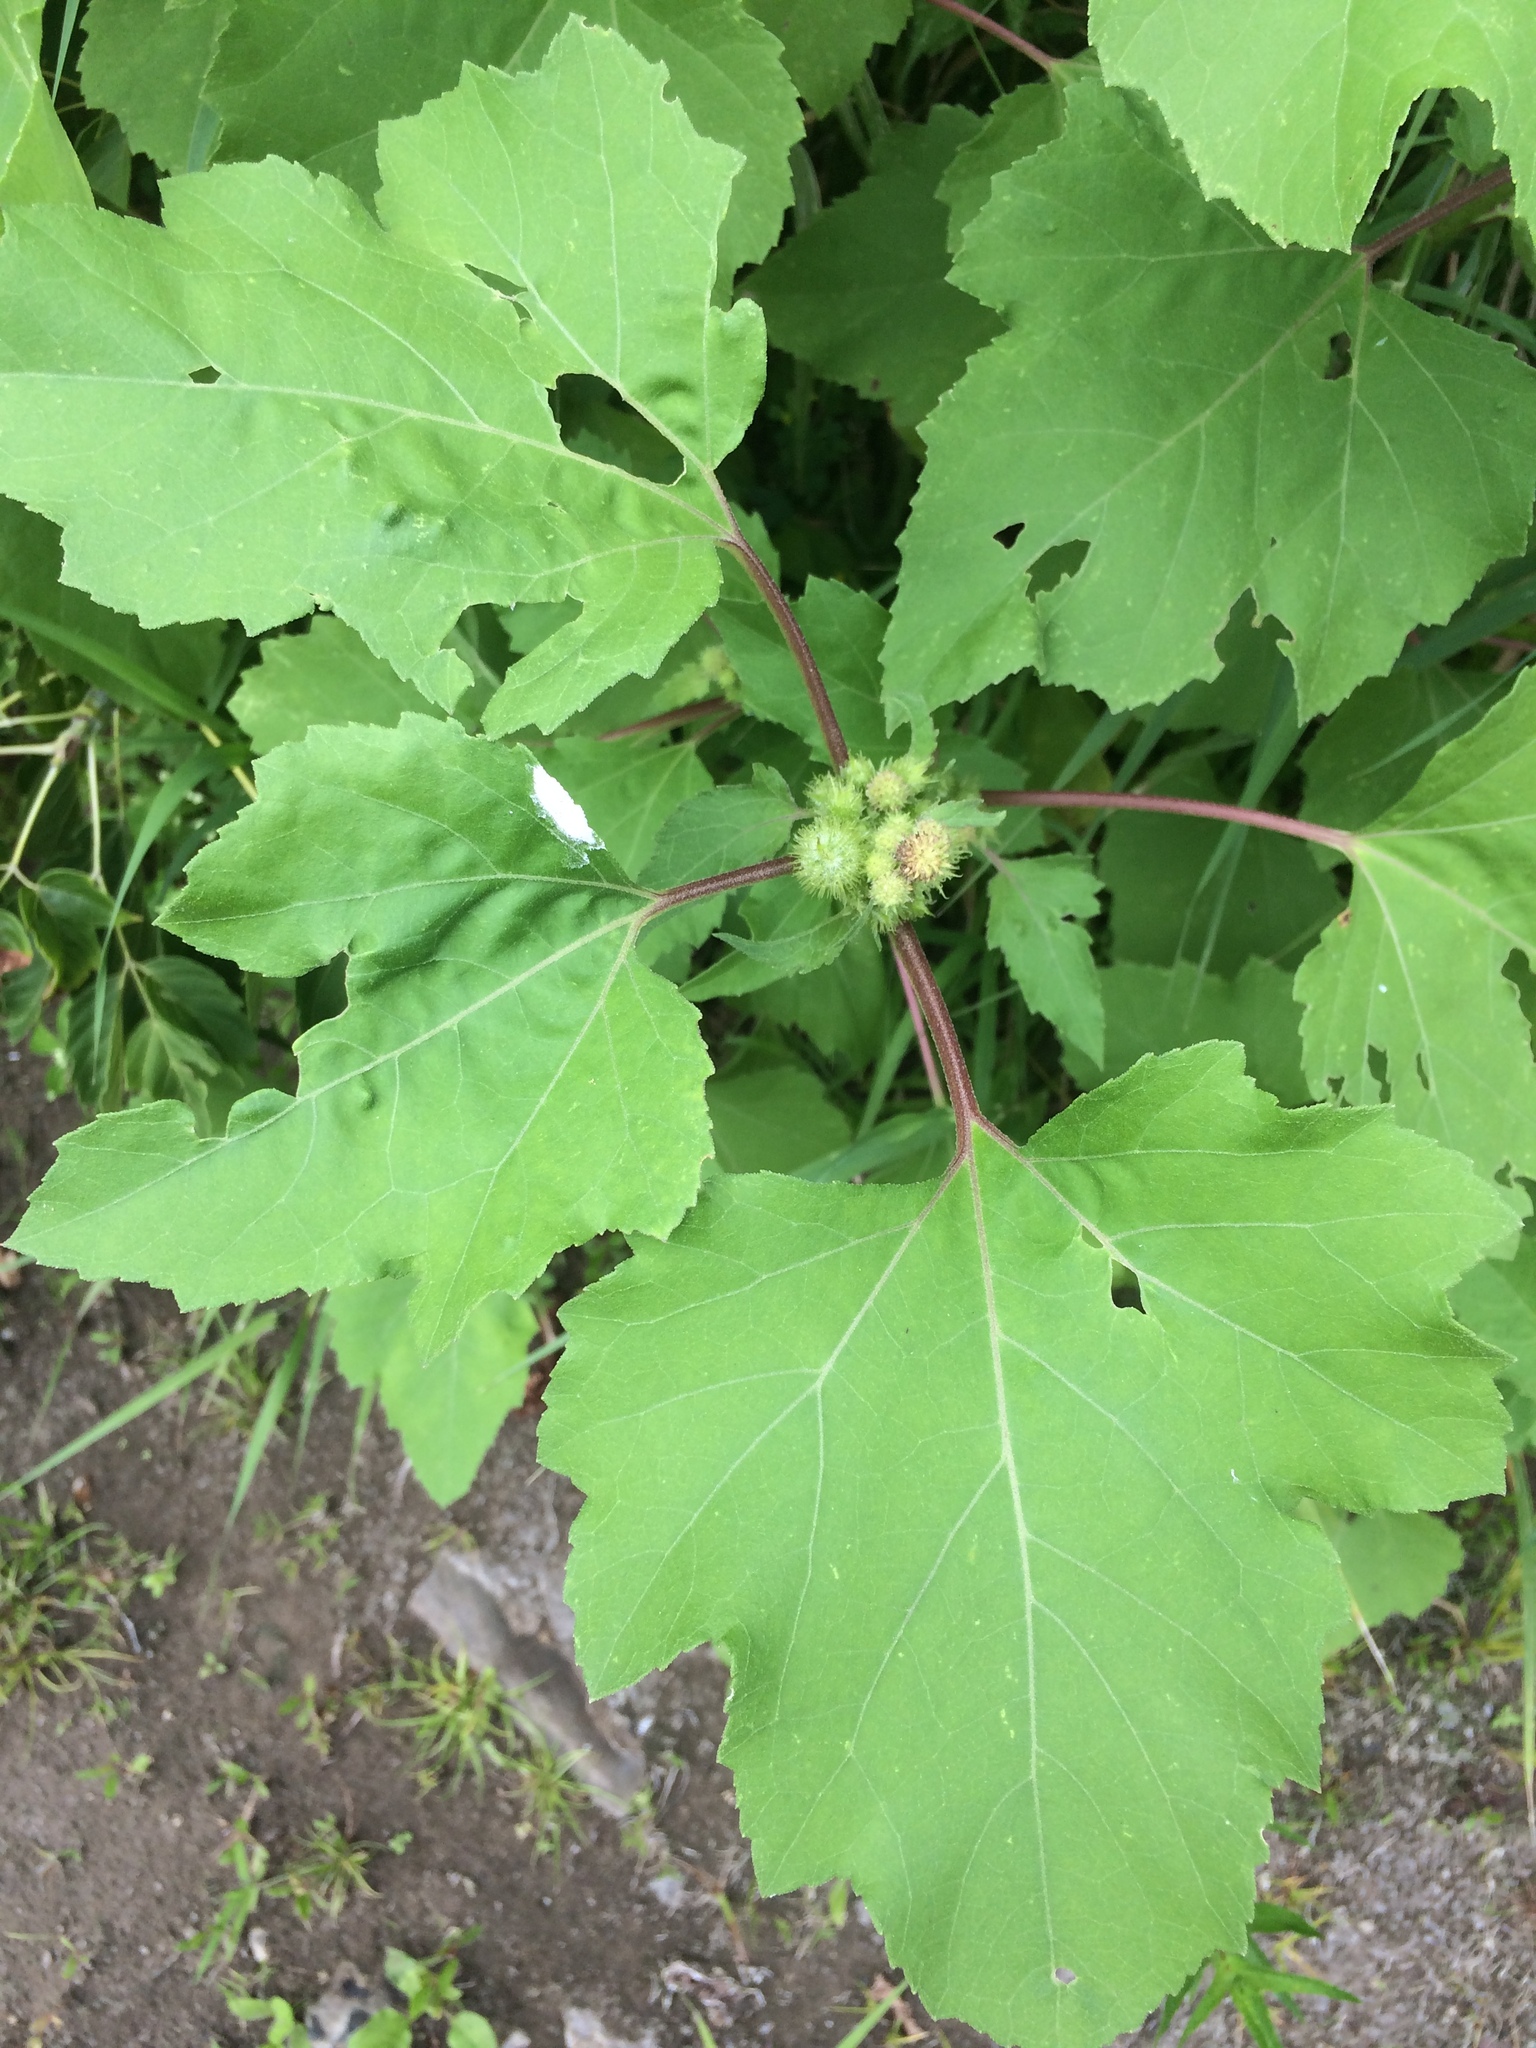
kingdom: Plantae
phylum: Tracheophyta
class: Magnoliopsida
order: Asterales
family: Asteraceae
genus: Xanthium
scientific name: Xanthium strumarium
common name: Rough cocklebur
